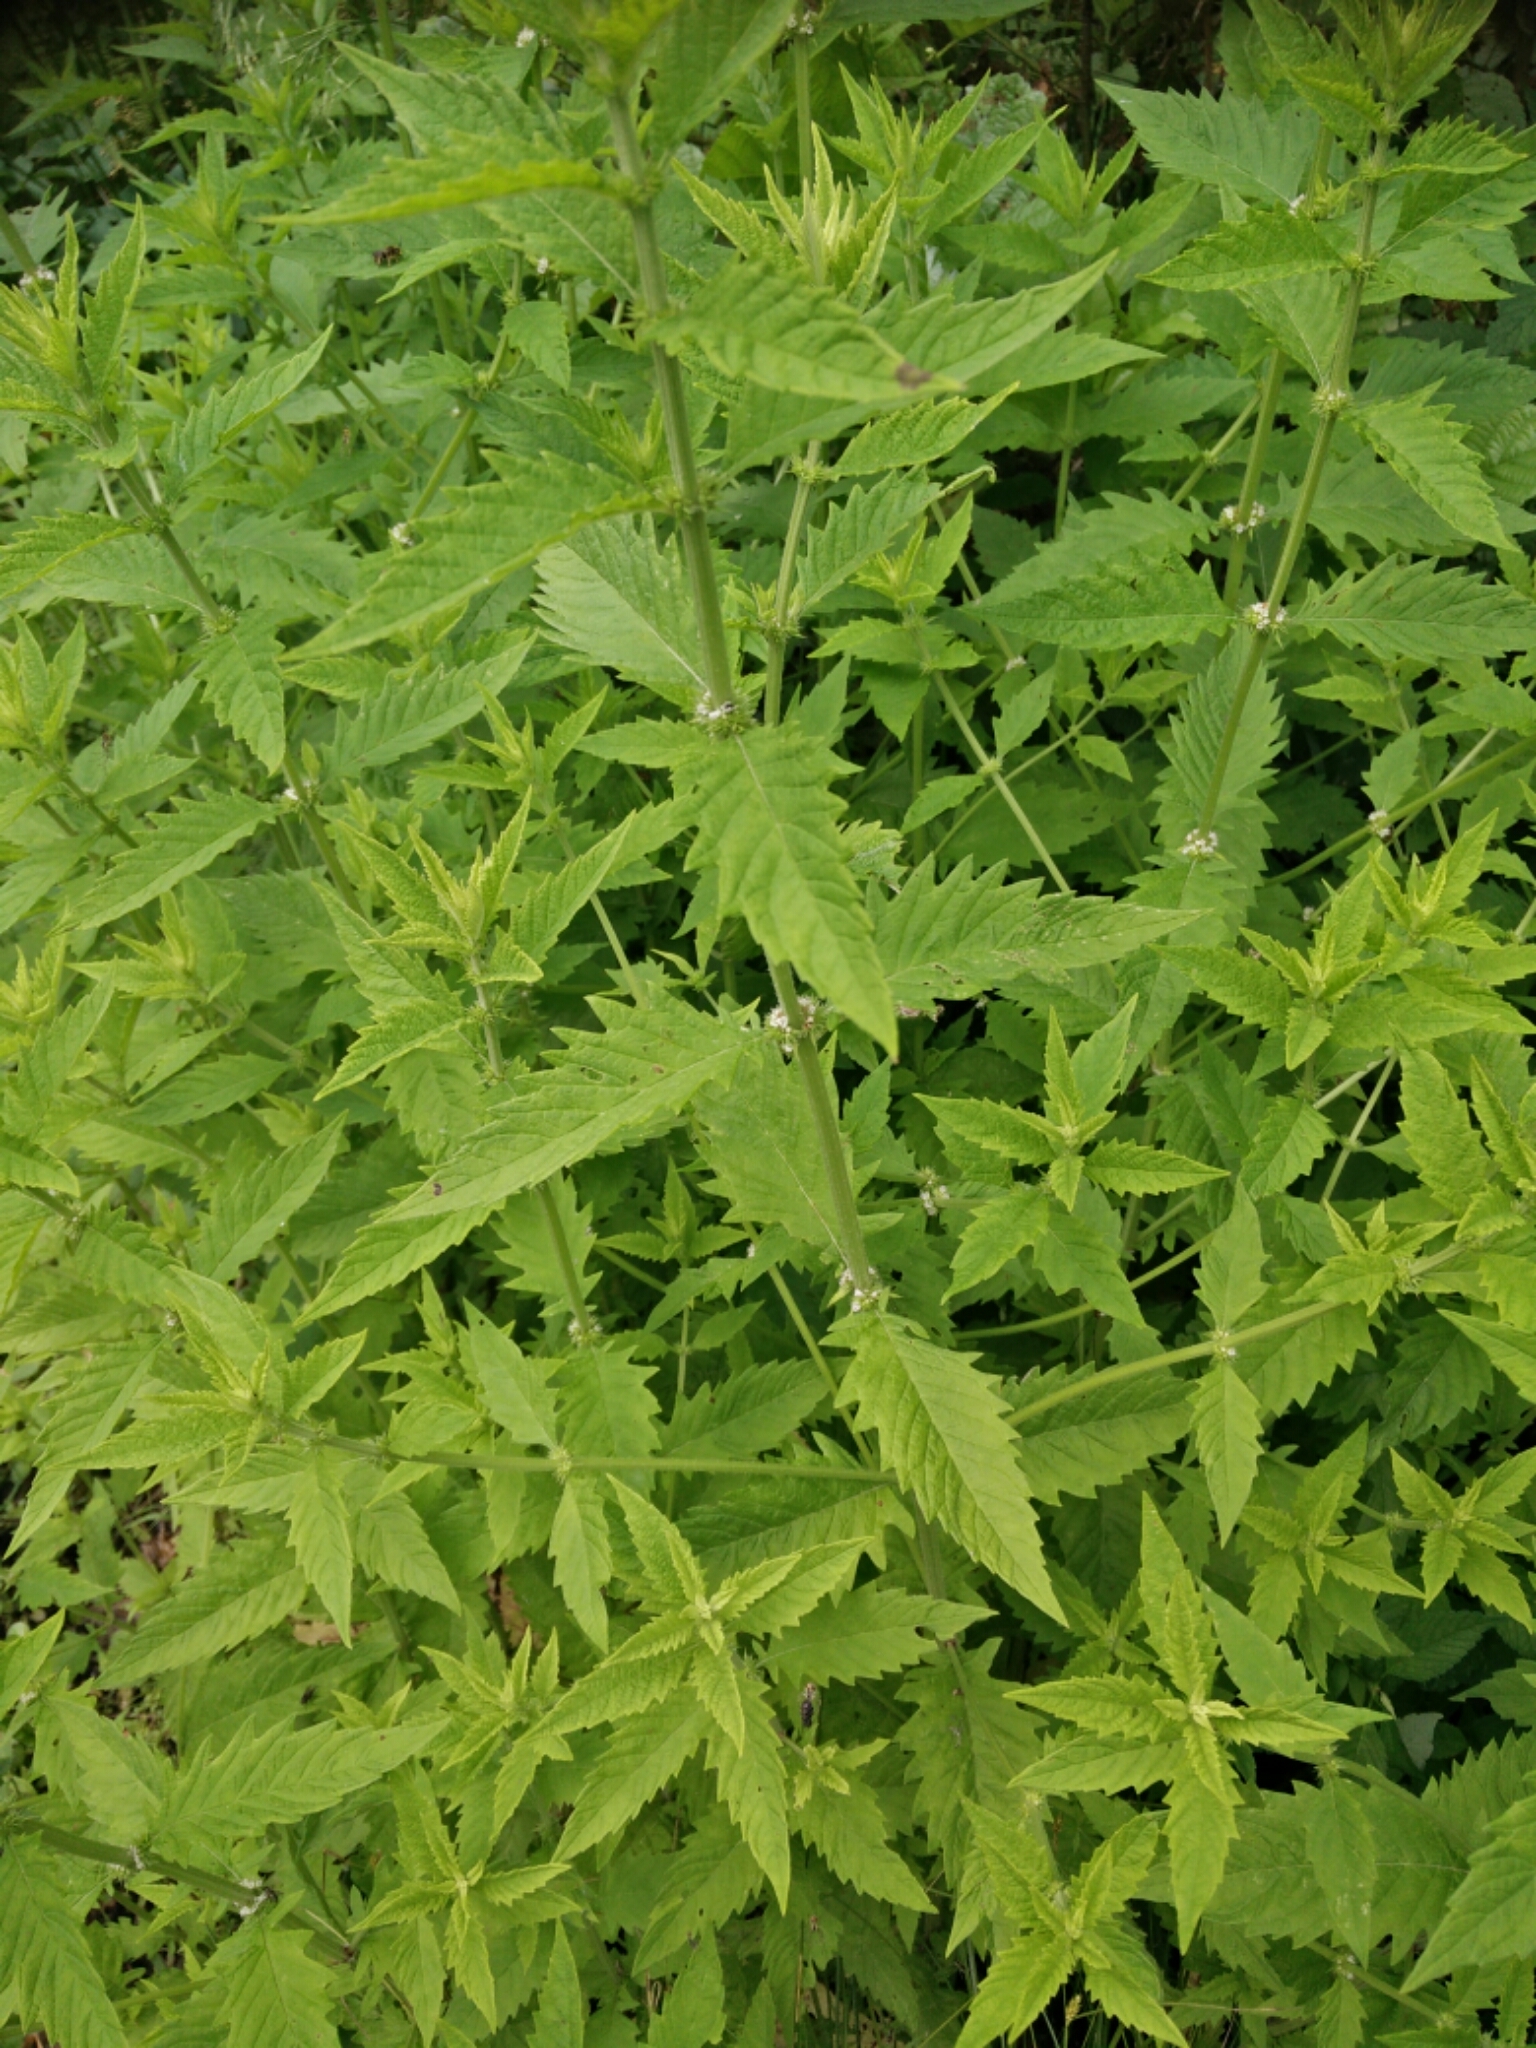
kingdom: Plantae
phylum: Tracheophyta
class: Magnoliopsida
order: Lamiales
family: Lamiaceae
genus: Lycopus
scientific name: Lycopus europaeus
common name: European bugleweed
